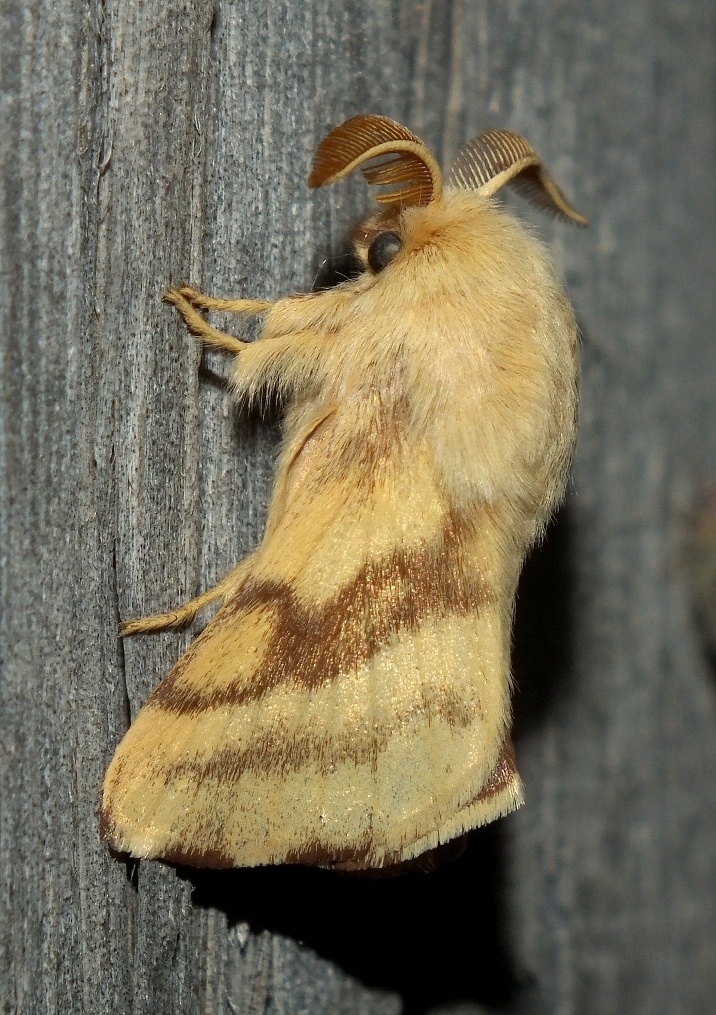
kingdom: Animalia
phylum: Arthropoda
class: Insecta
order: Lepidoptera
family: Lasiocampidae
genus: Malacosoma
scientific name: Malacosoma castrense
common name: Ground lackey
